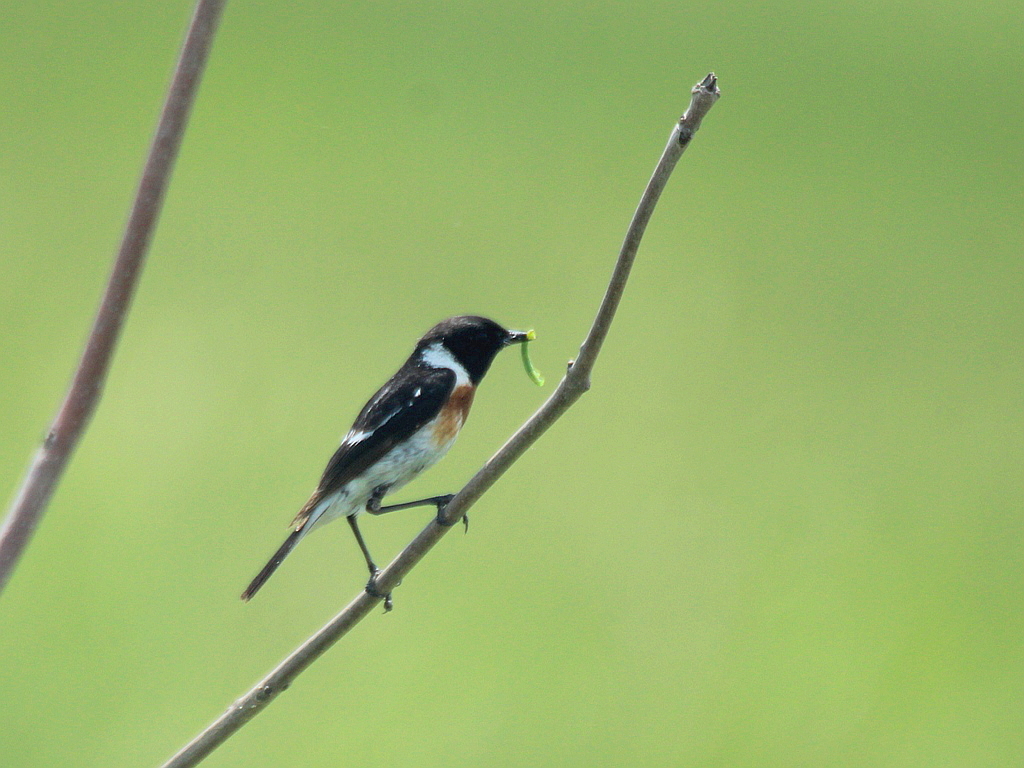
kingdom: Animalia
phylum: Chordata
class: Aves
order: Passeriformes
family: Muscicapidae
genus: Saxicola
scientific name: Saxicola maurus
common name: Siberian stonechat
